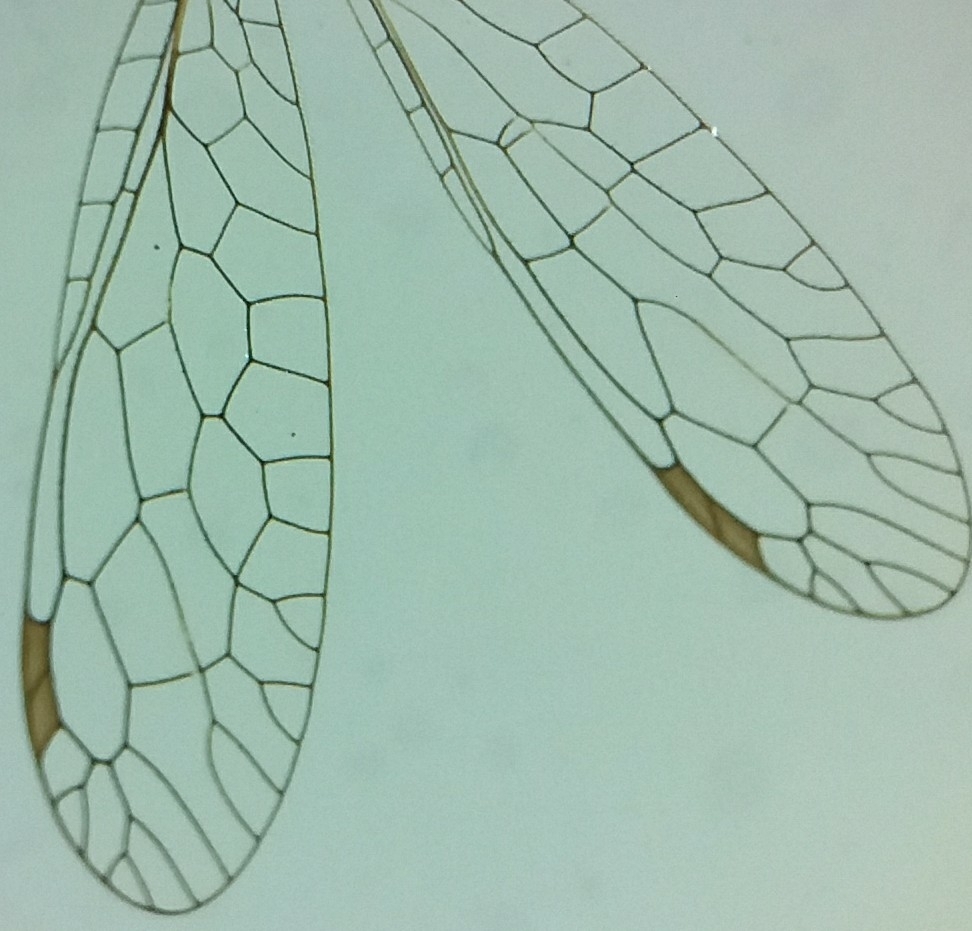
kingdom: Animalia
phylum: Arthropoda
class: Insecta
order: Raphidioptera
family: Raphidiidae
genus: Venustoraphidia
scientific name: Venustoraphidia nigricollis
